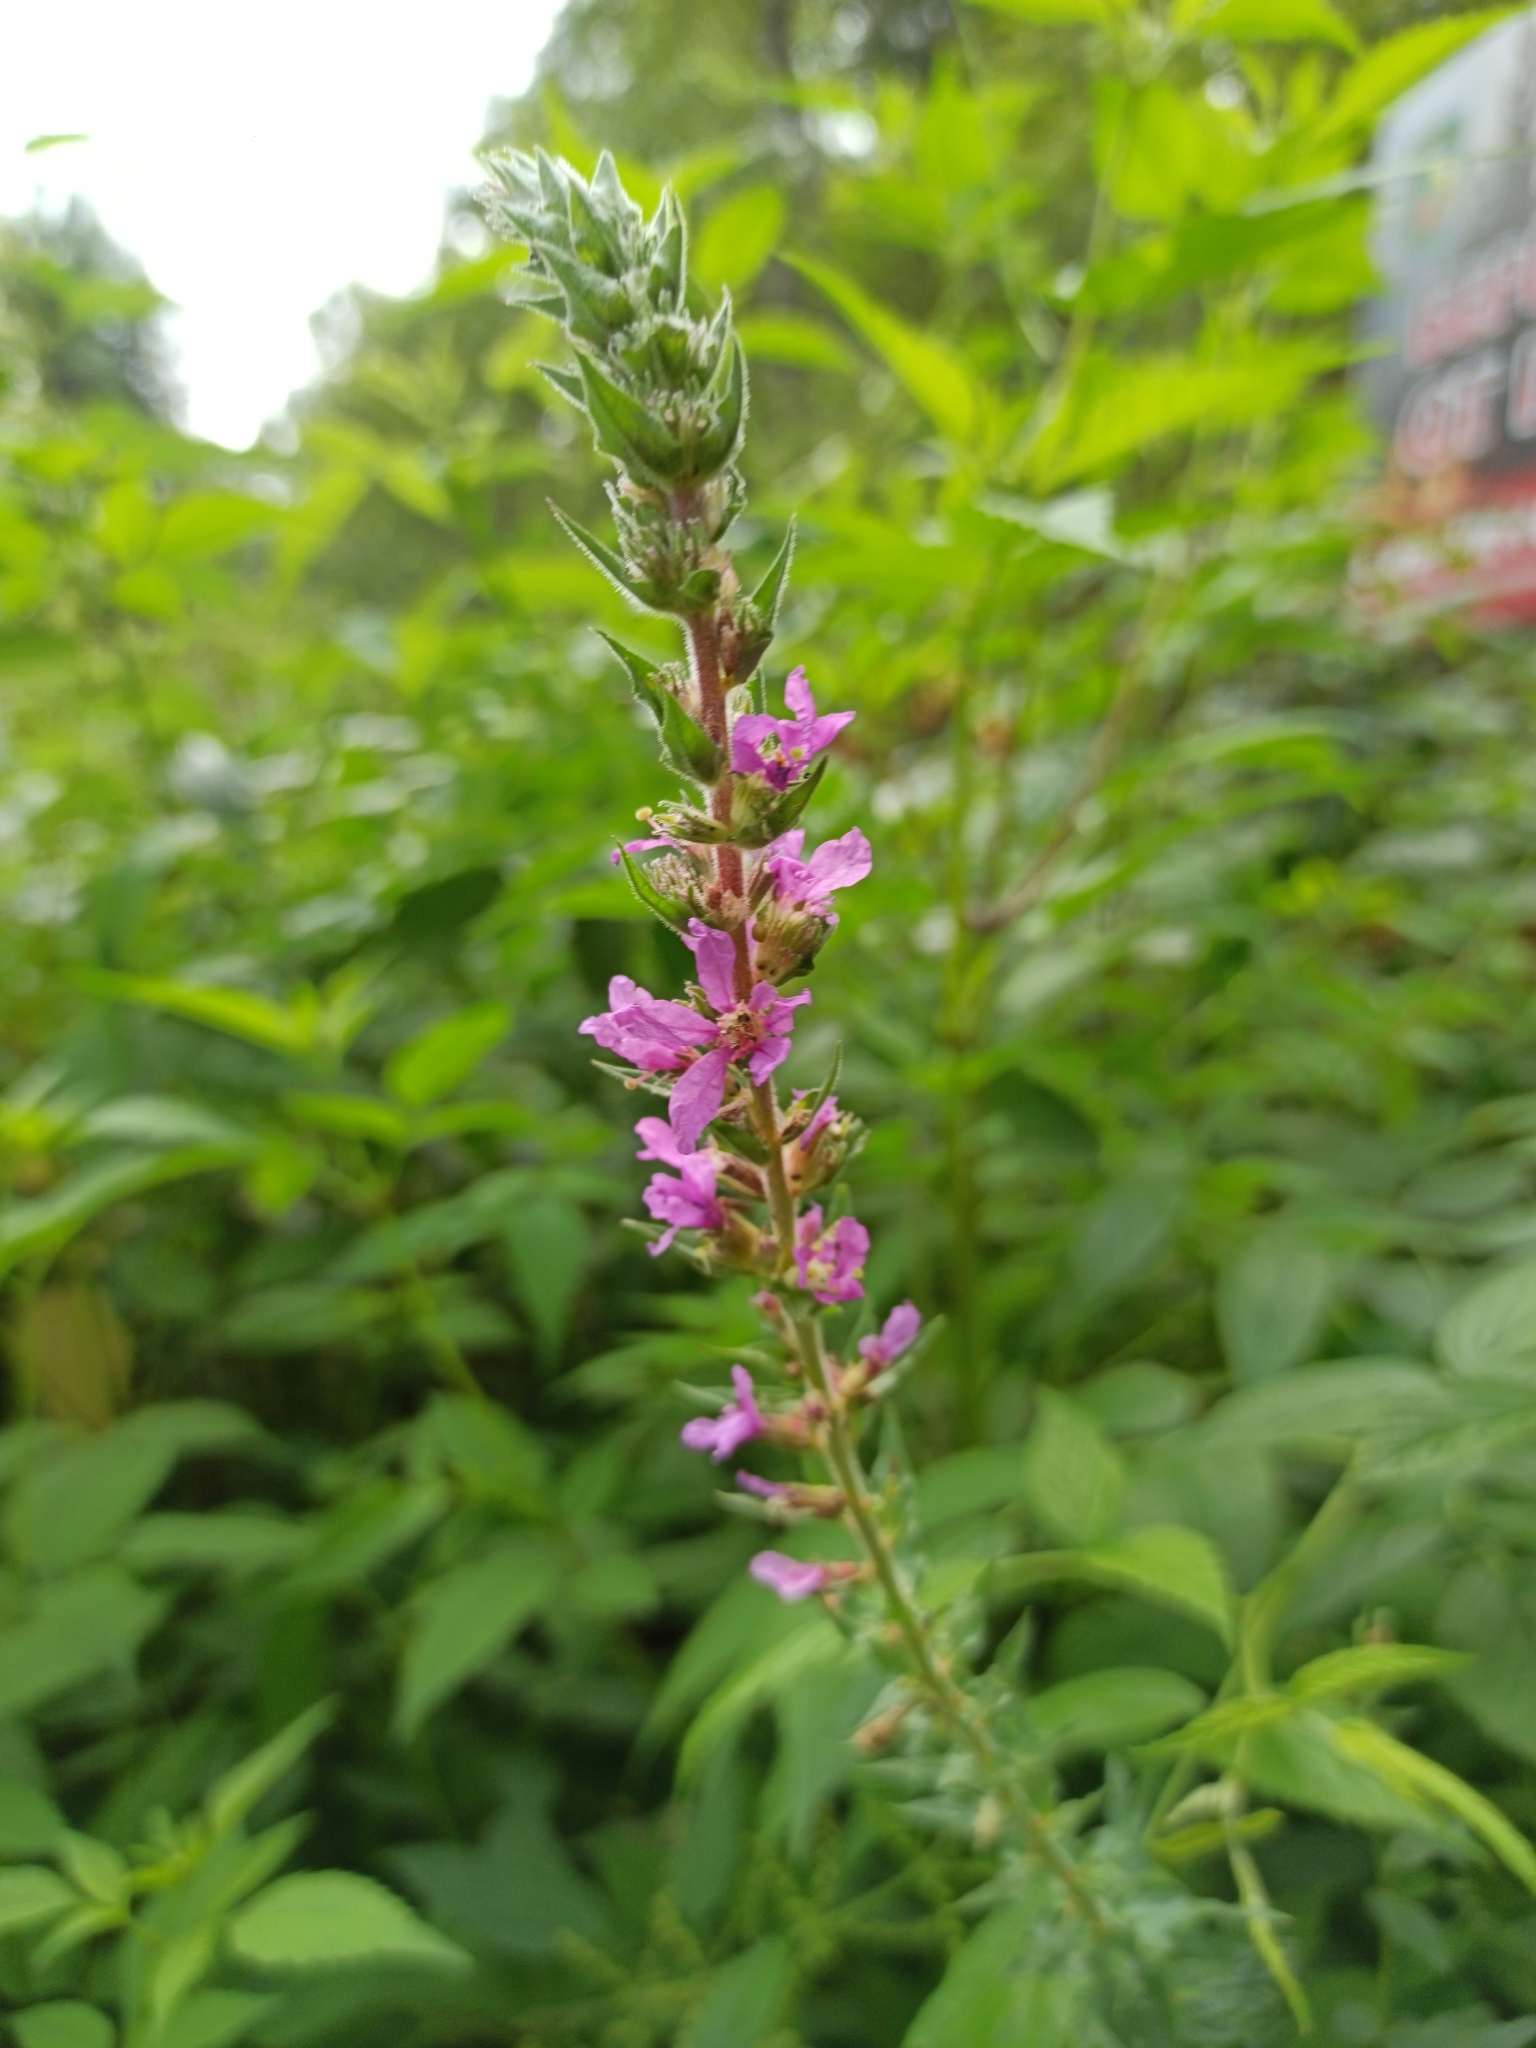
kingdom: Plantae
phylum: Tracheophyta
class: Magnoliopsida
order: Myrtales
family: Lythraceae
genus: Lythrum
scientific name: Lythrum salicaria
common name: Purple loosestrife
